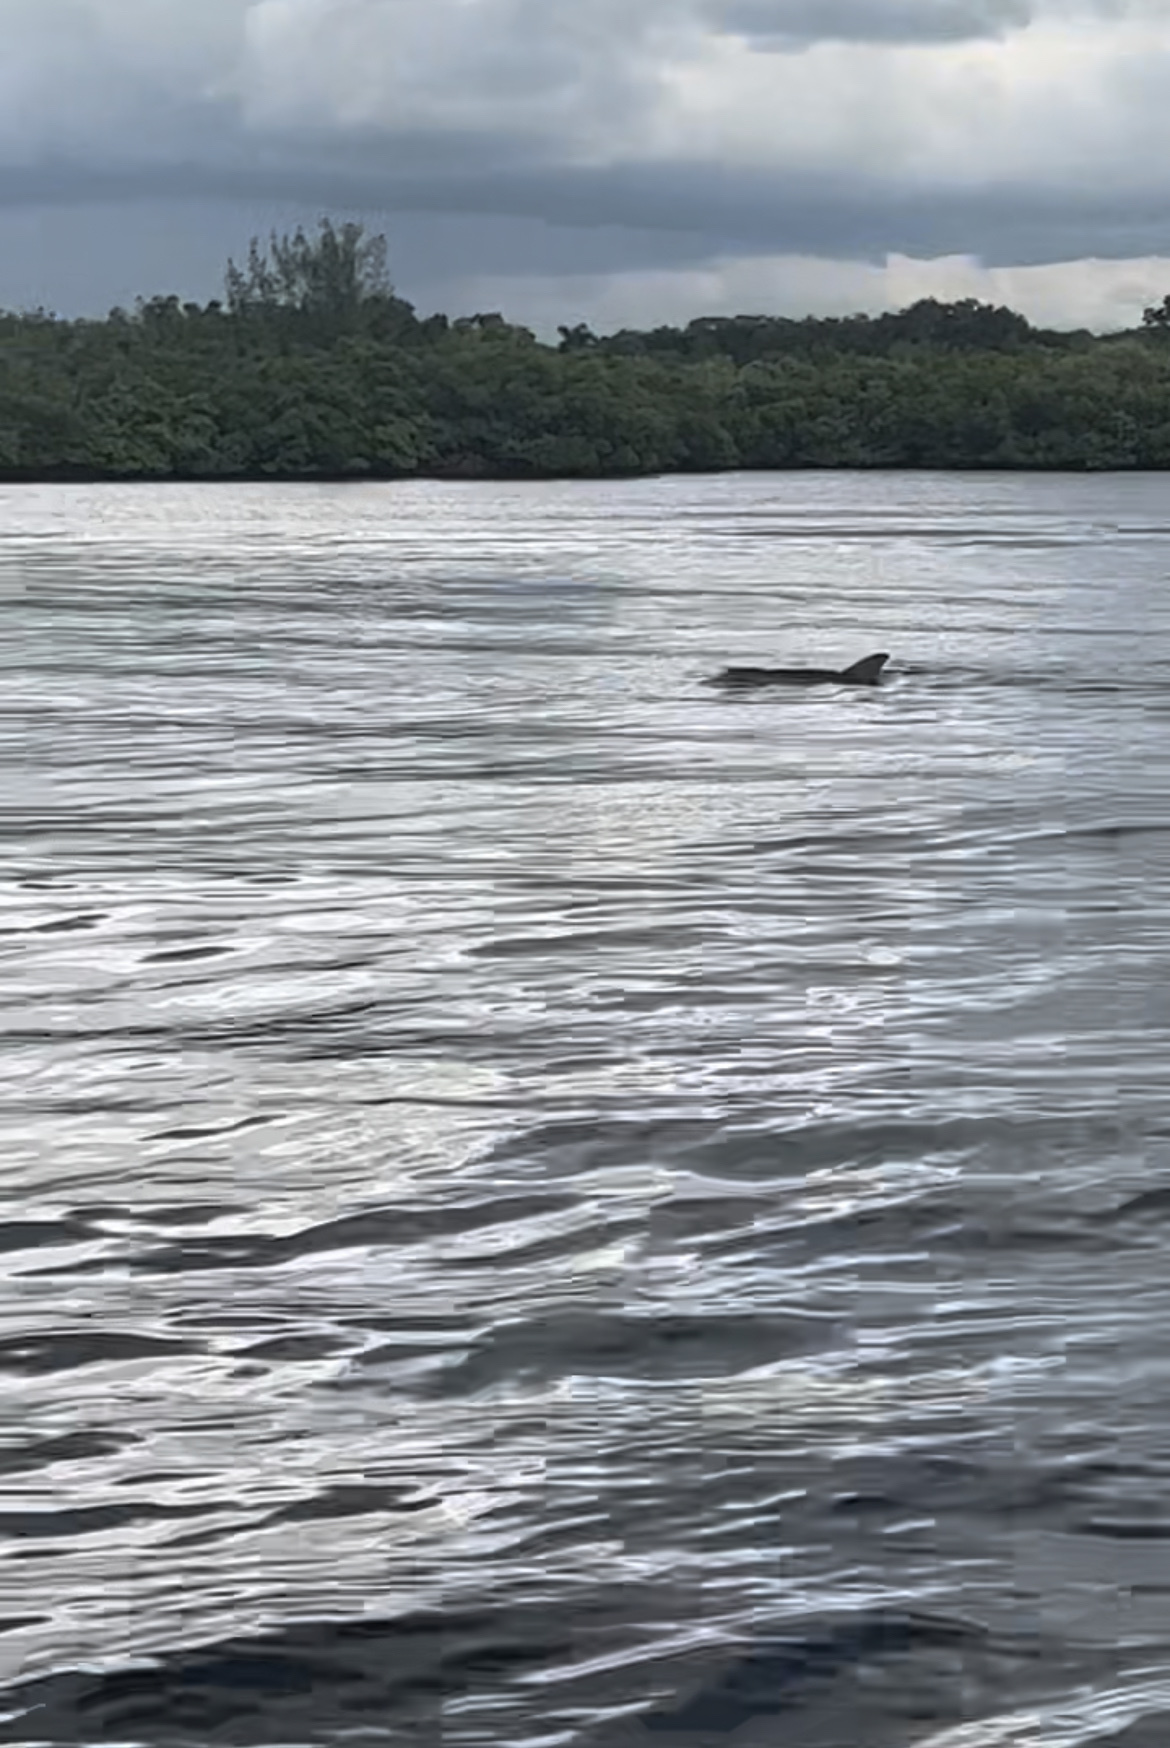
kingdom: Animalia
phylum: Chordata
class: Mammalia
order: Cetacea
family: Delphinidae
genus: Tursiops
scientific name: Tursiops truncatus
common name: Bottlenose dolphin
